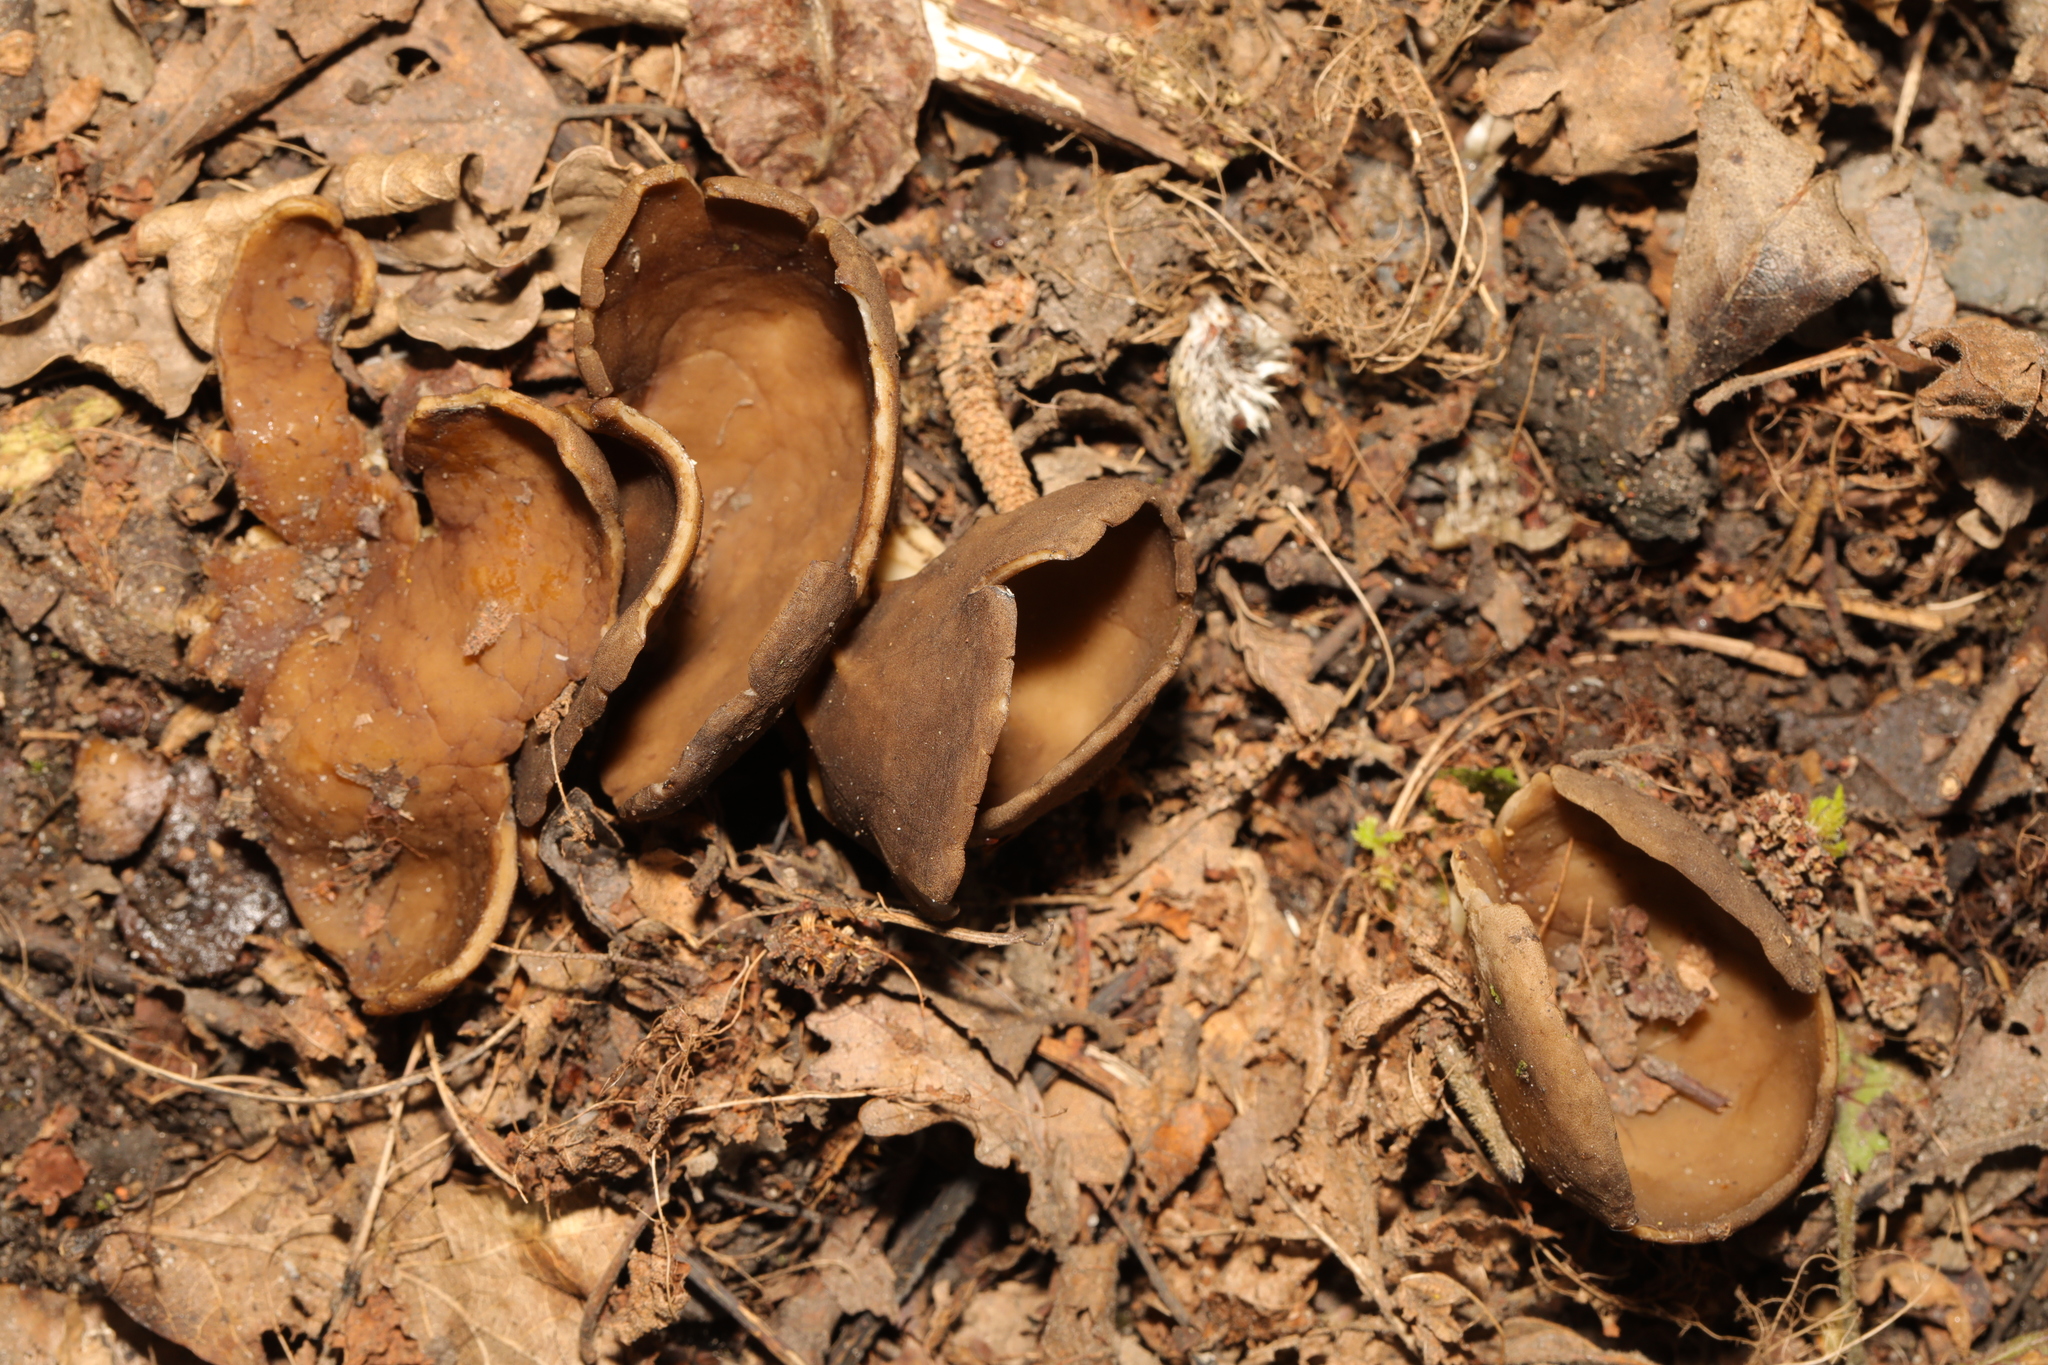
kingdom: Fungi
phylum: Ascomycota
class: Pezizomycetes
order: Pezizales
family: Morchellaceae
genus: Disciotis
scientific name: Disciotis venosa
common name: Bleach cup
